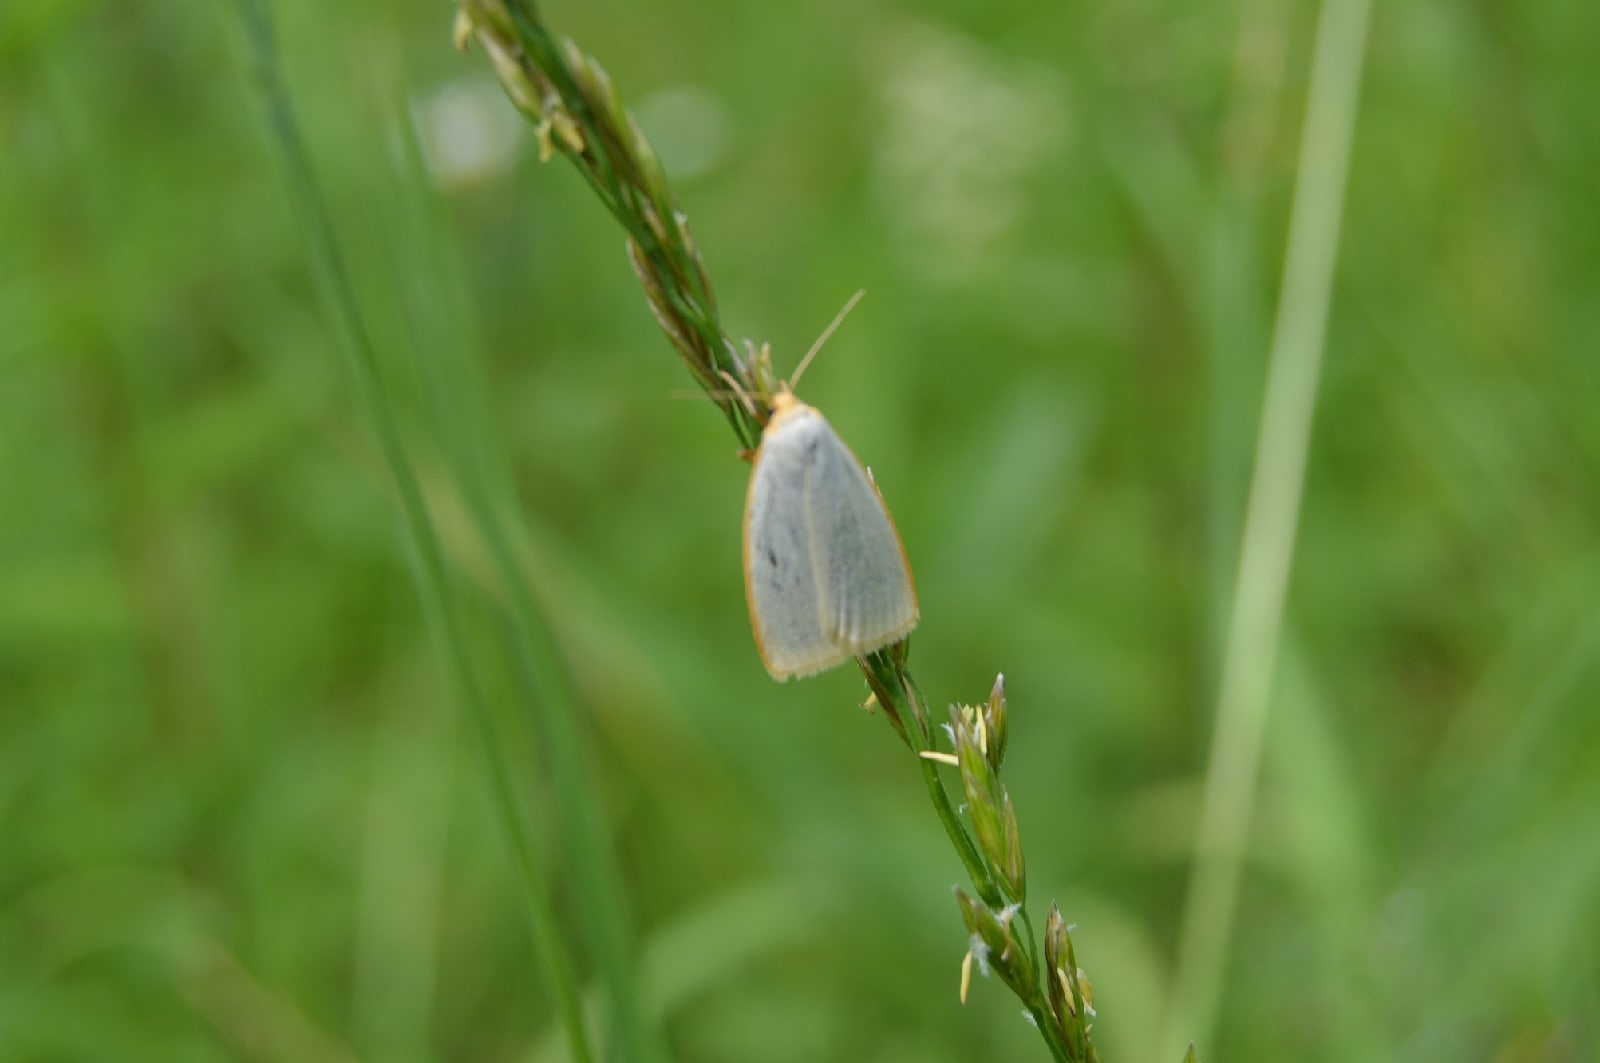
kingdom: Animalia
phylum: Arthropoda
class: Insecta
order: Lepidoptera
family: Erebidae
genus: Cybosia
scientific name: Cybosia mesomella
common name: Four-dotted footman
